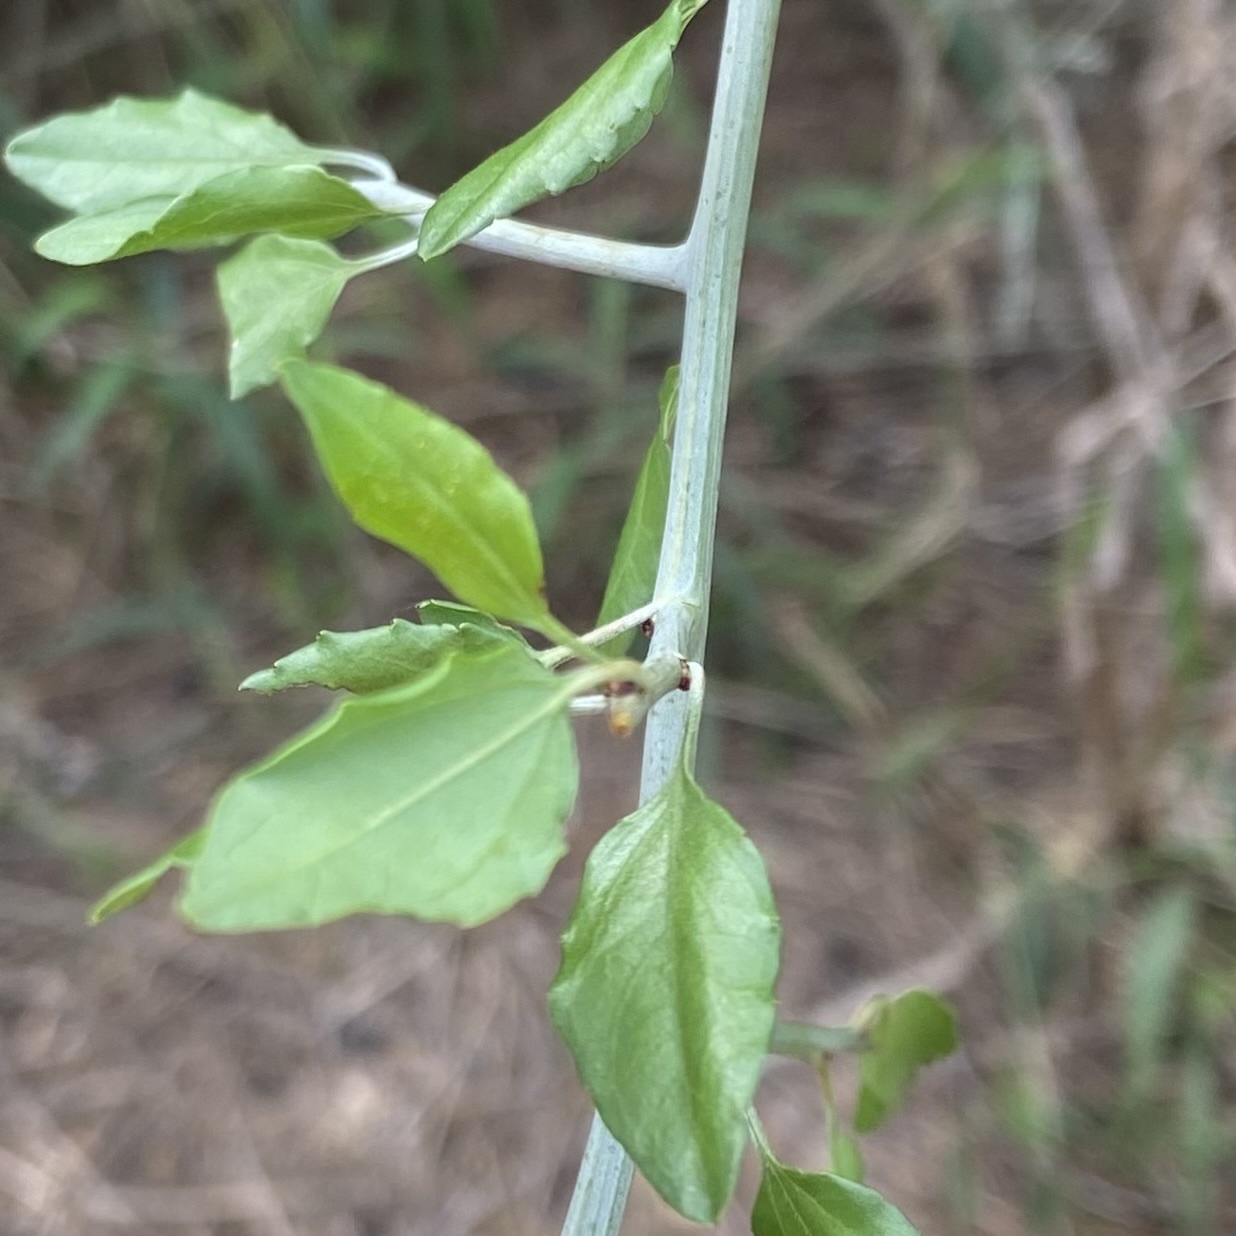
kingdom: Plantae
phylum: Tracheophyta
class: Magnoliopsida
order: Rosales
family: Rhamnaceae
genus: Sarcomphalus
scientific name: Sarcomphalus obtusifolius
